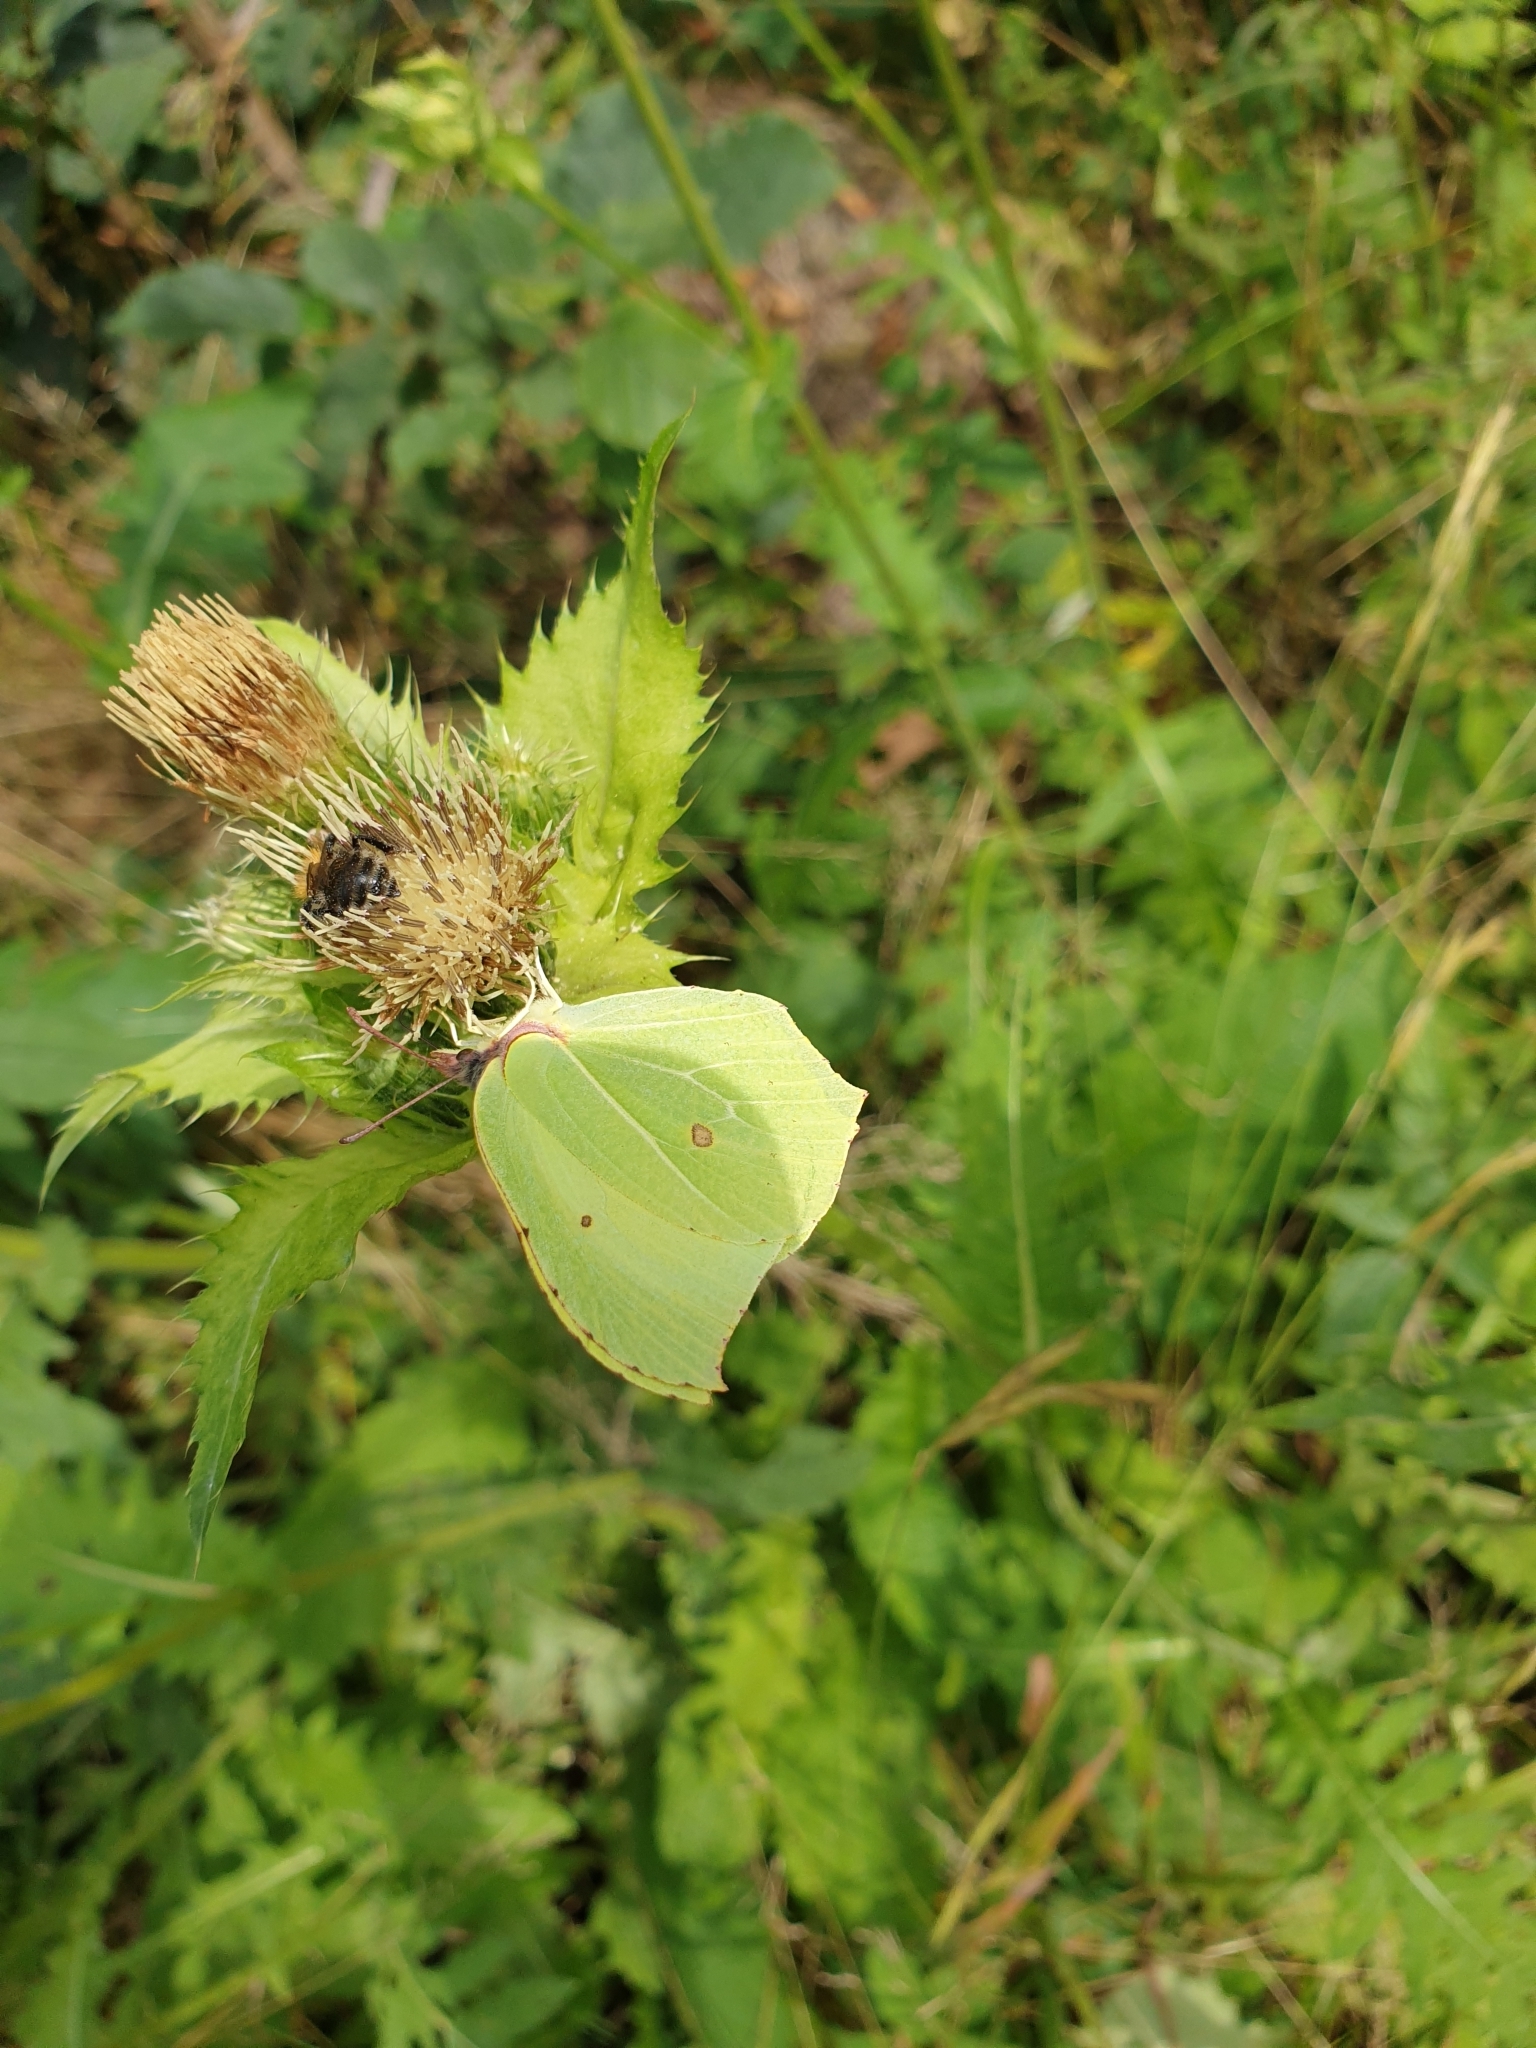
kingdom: Animalia
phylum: Arthropoda
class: Insecta
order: Lepidoptera
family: Pieridae
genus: Gonepteryx
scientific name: Gonepteryx rhamni
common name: Brimstone
